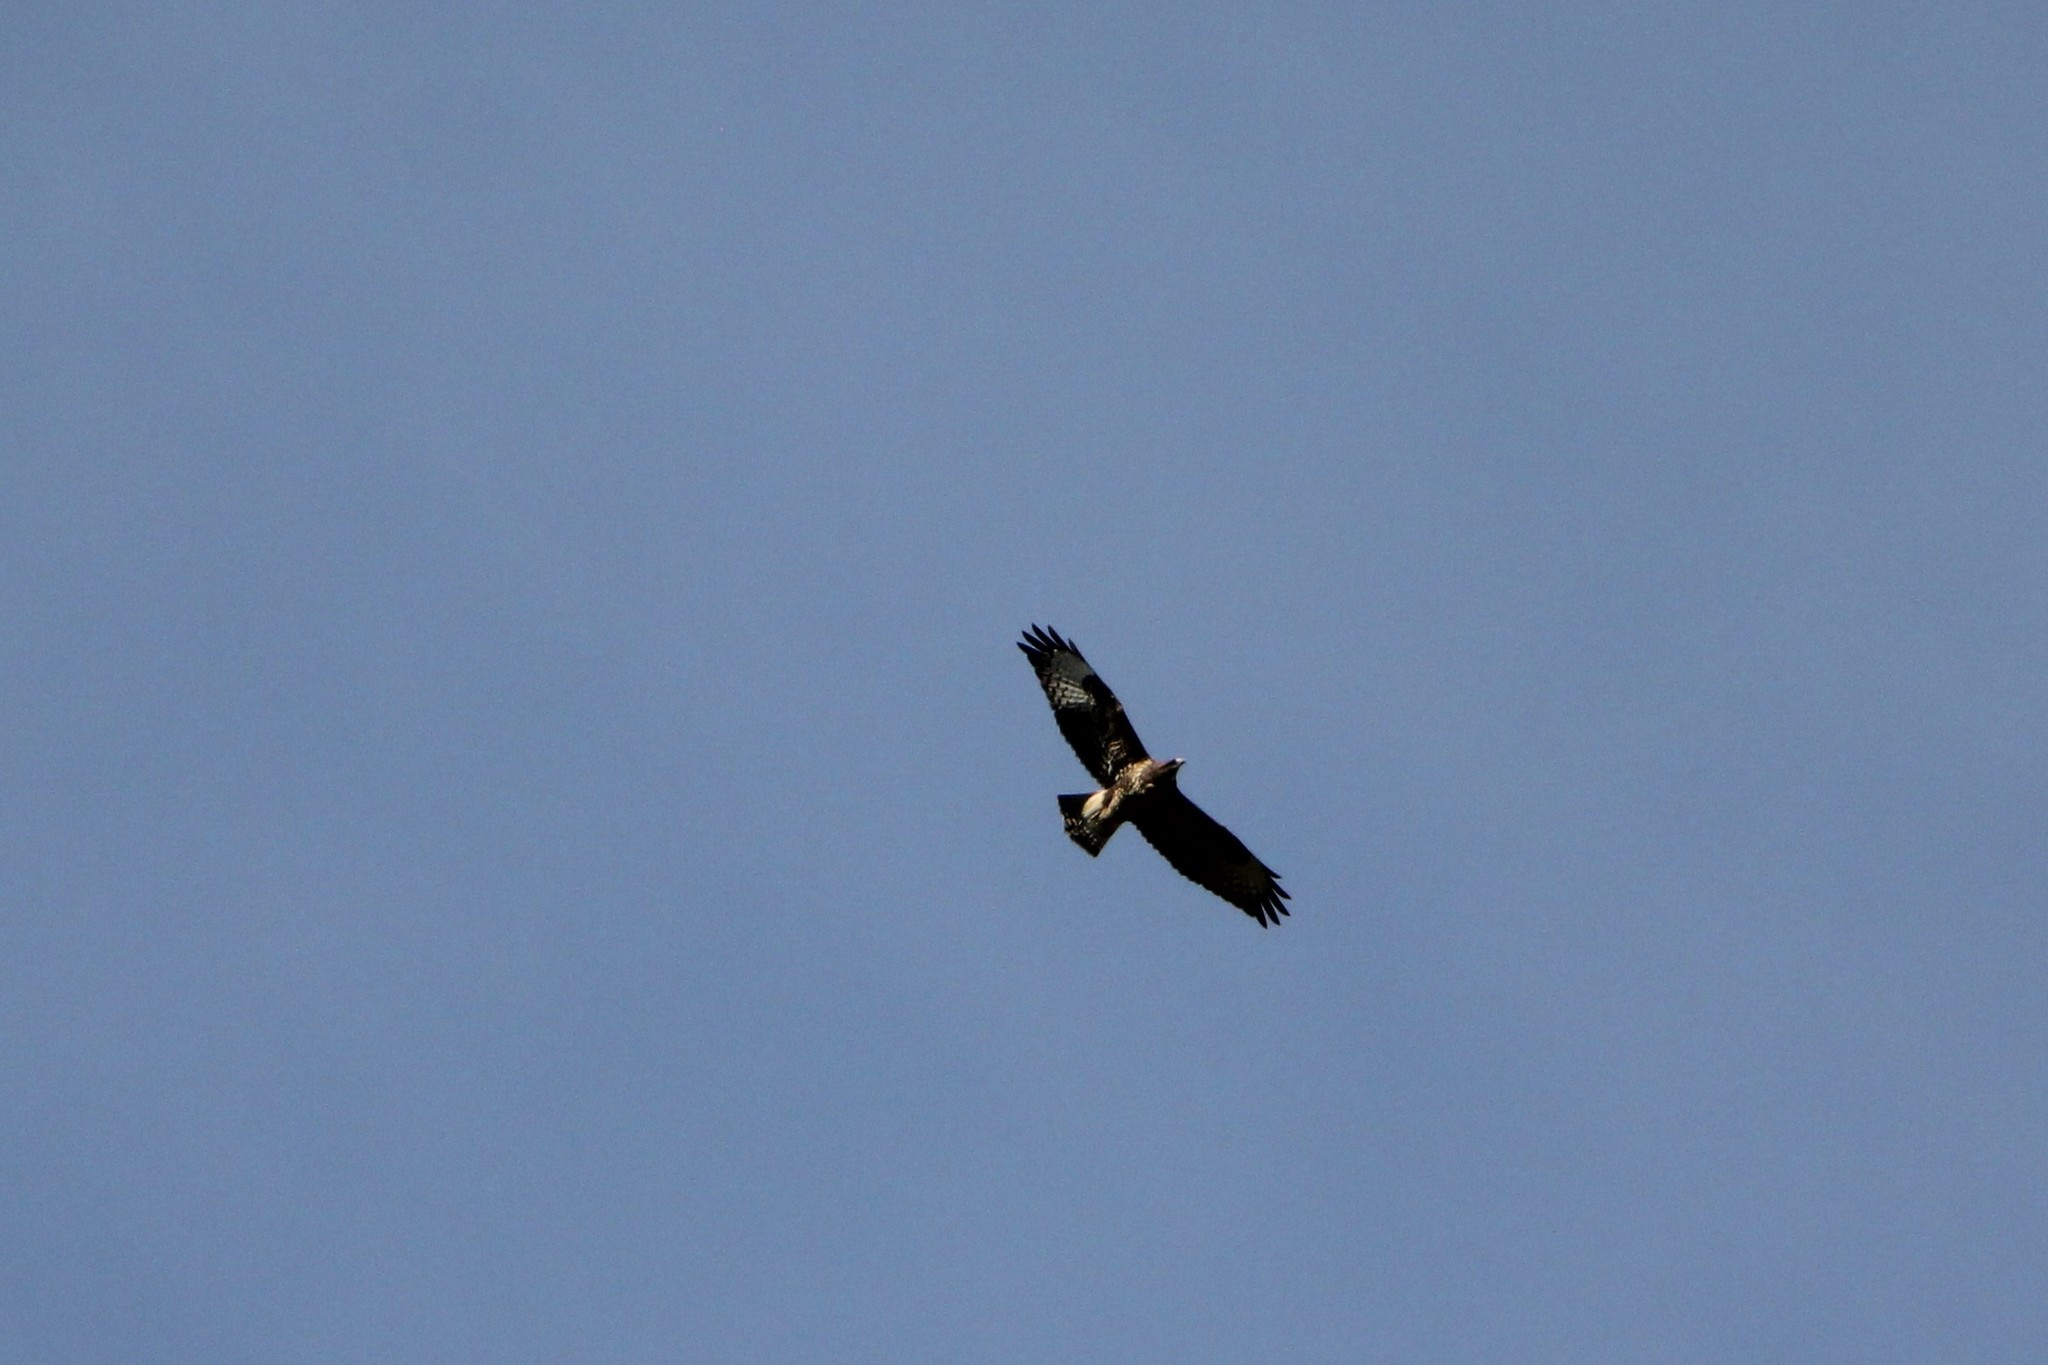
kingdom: Animalia
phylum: Chordata
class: Aves
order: Accipitriformes
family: Accipitridae
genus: Buteo
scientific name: Buteo buteo
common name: Common buzzard
